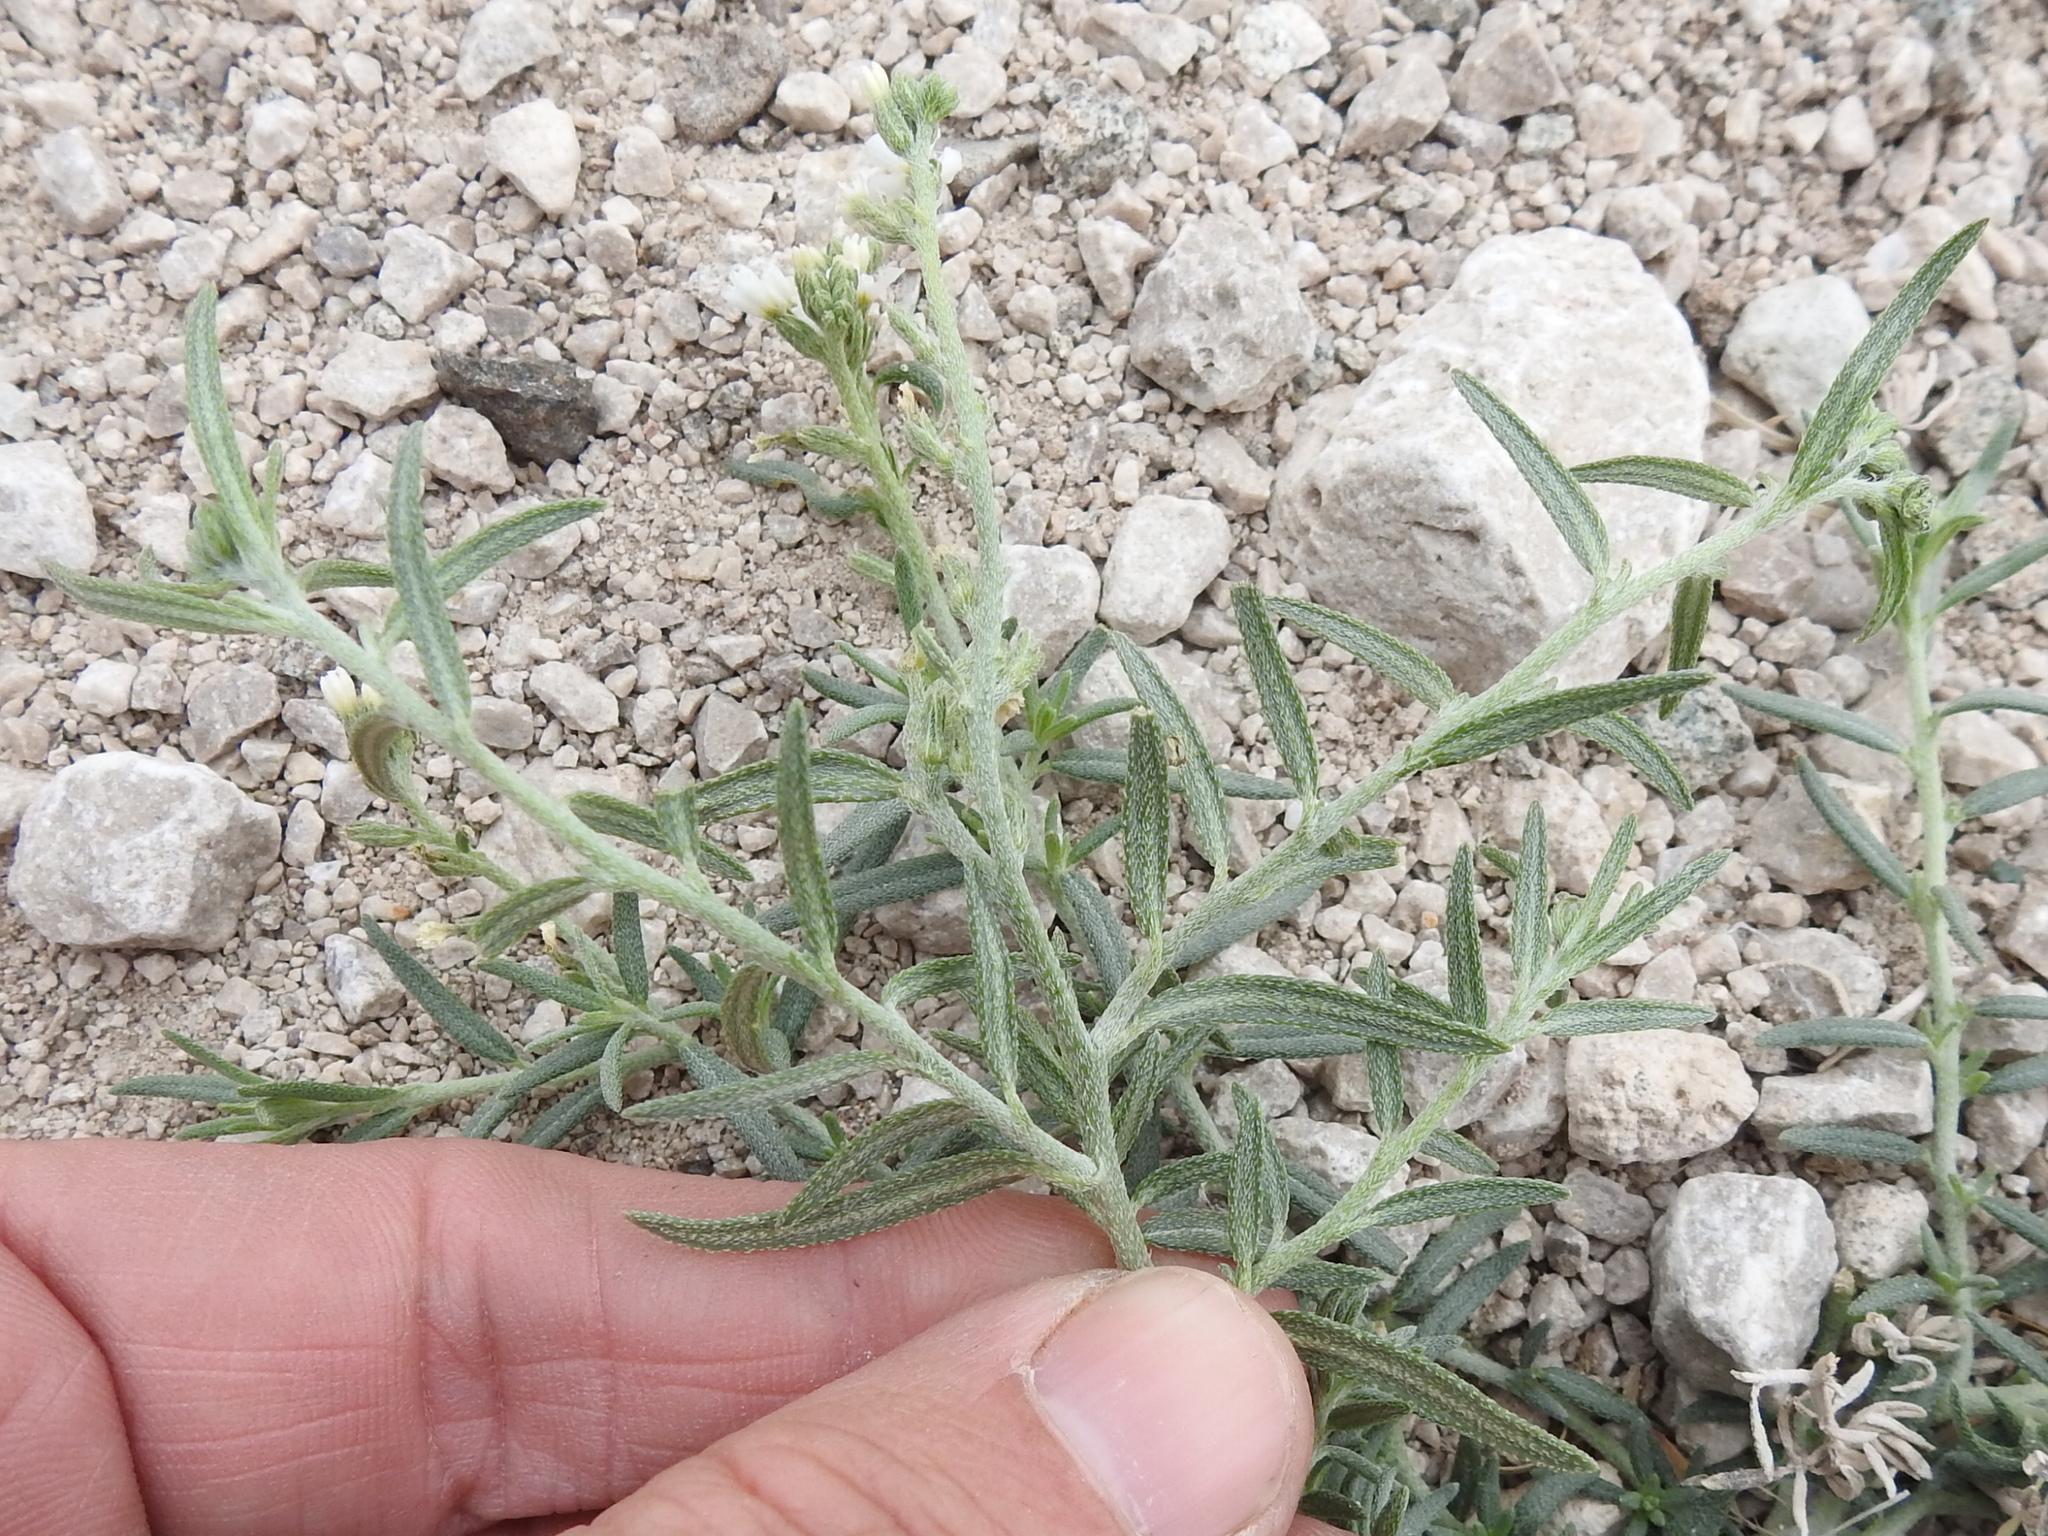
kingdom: Plantae
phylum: Tracheophyta
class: Magnoliopsida
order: Boraginales
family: Heliotropiaceae
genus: Euploca
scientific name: Euploca greggii
